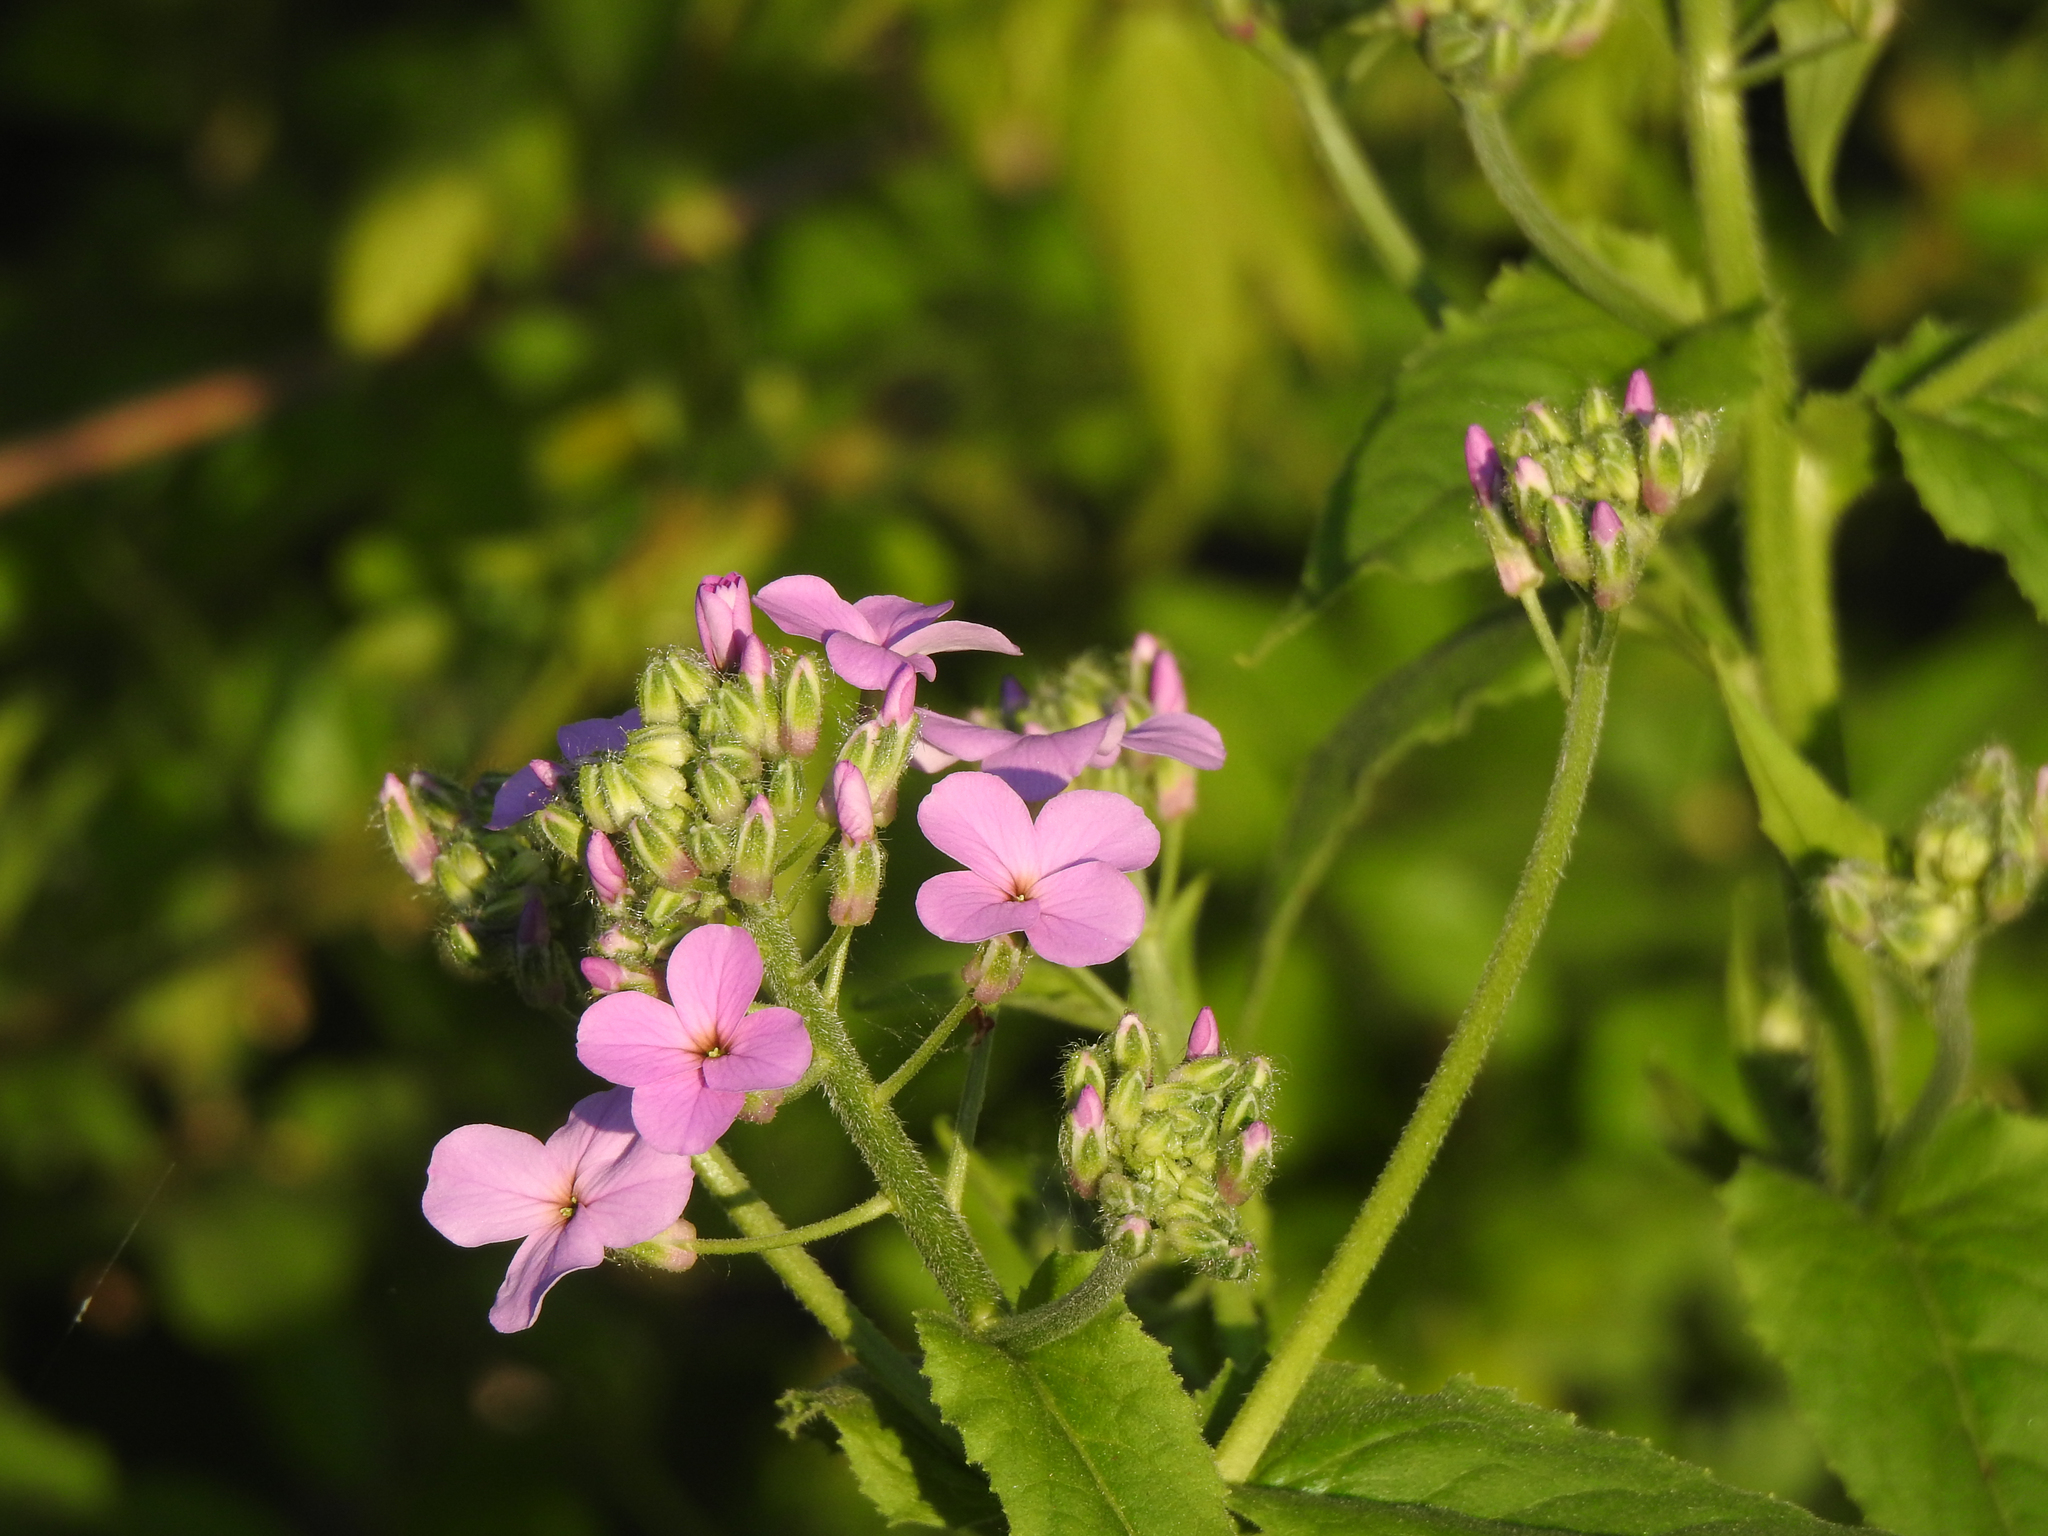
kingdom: Plantae
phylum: Tracheophyta
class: Magnoliopsida
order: Brassicales
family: Brassicaceae
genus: Hesperis
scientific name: Hesperis matronalis
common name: Dame's-violet
